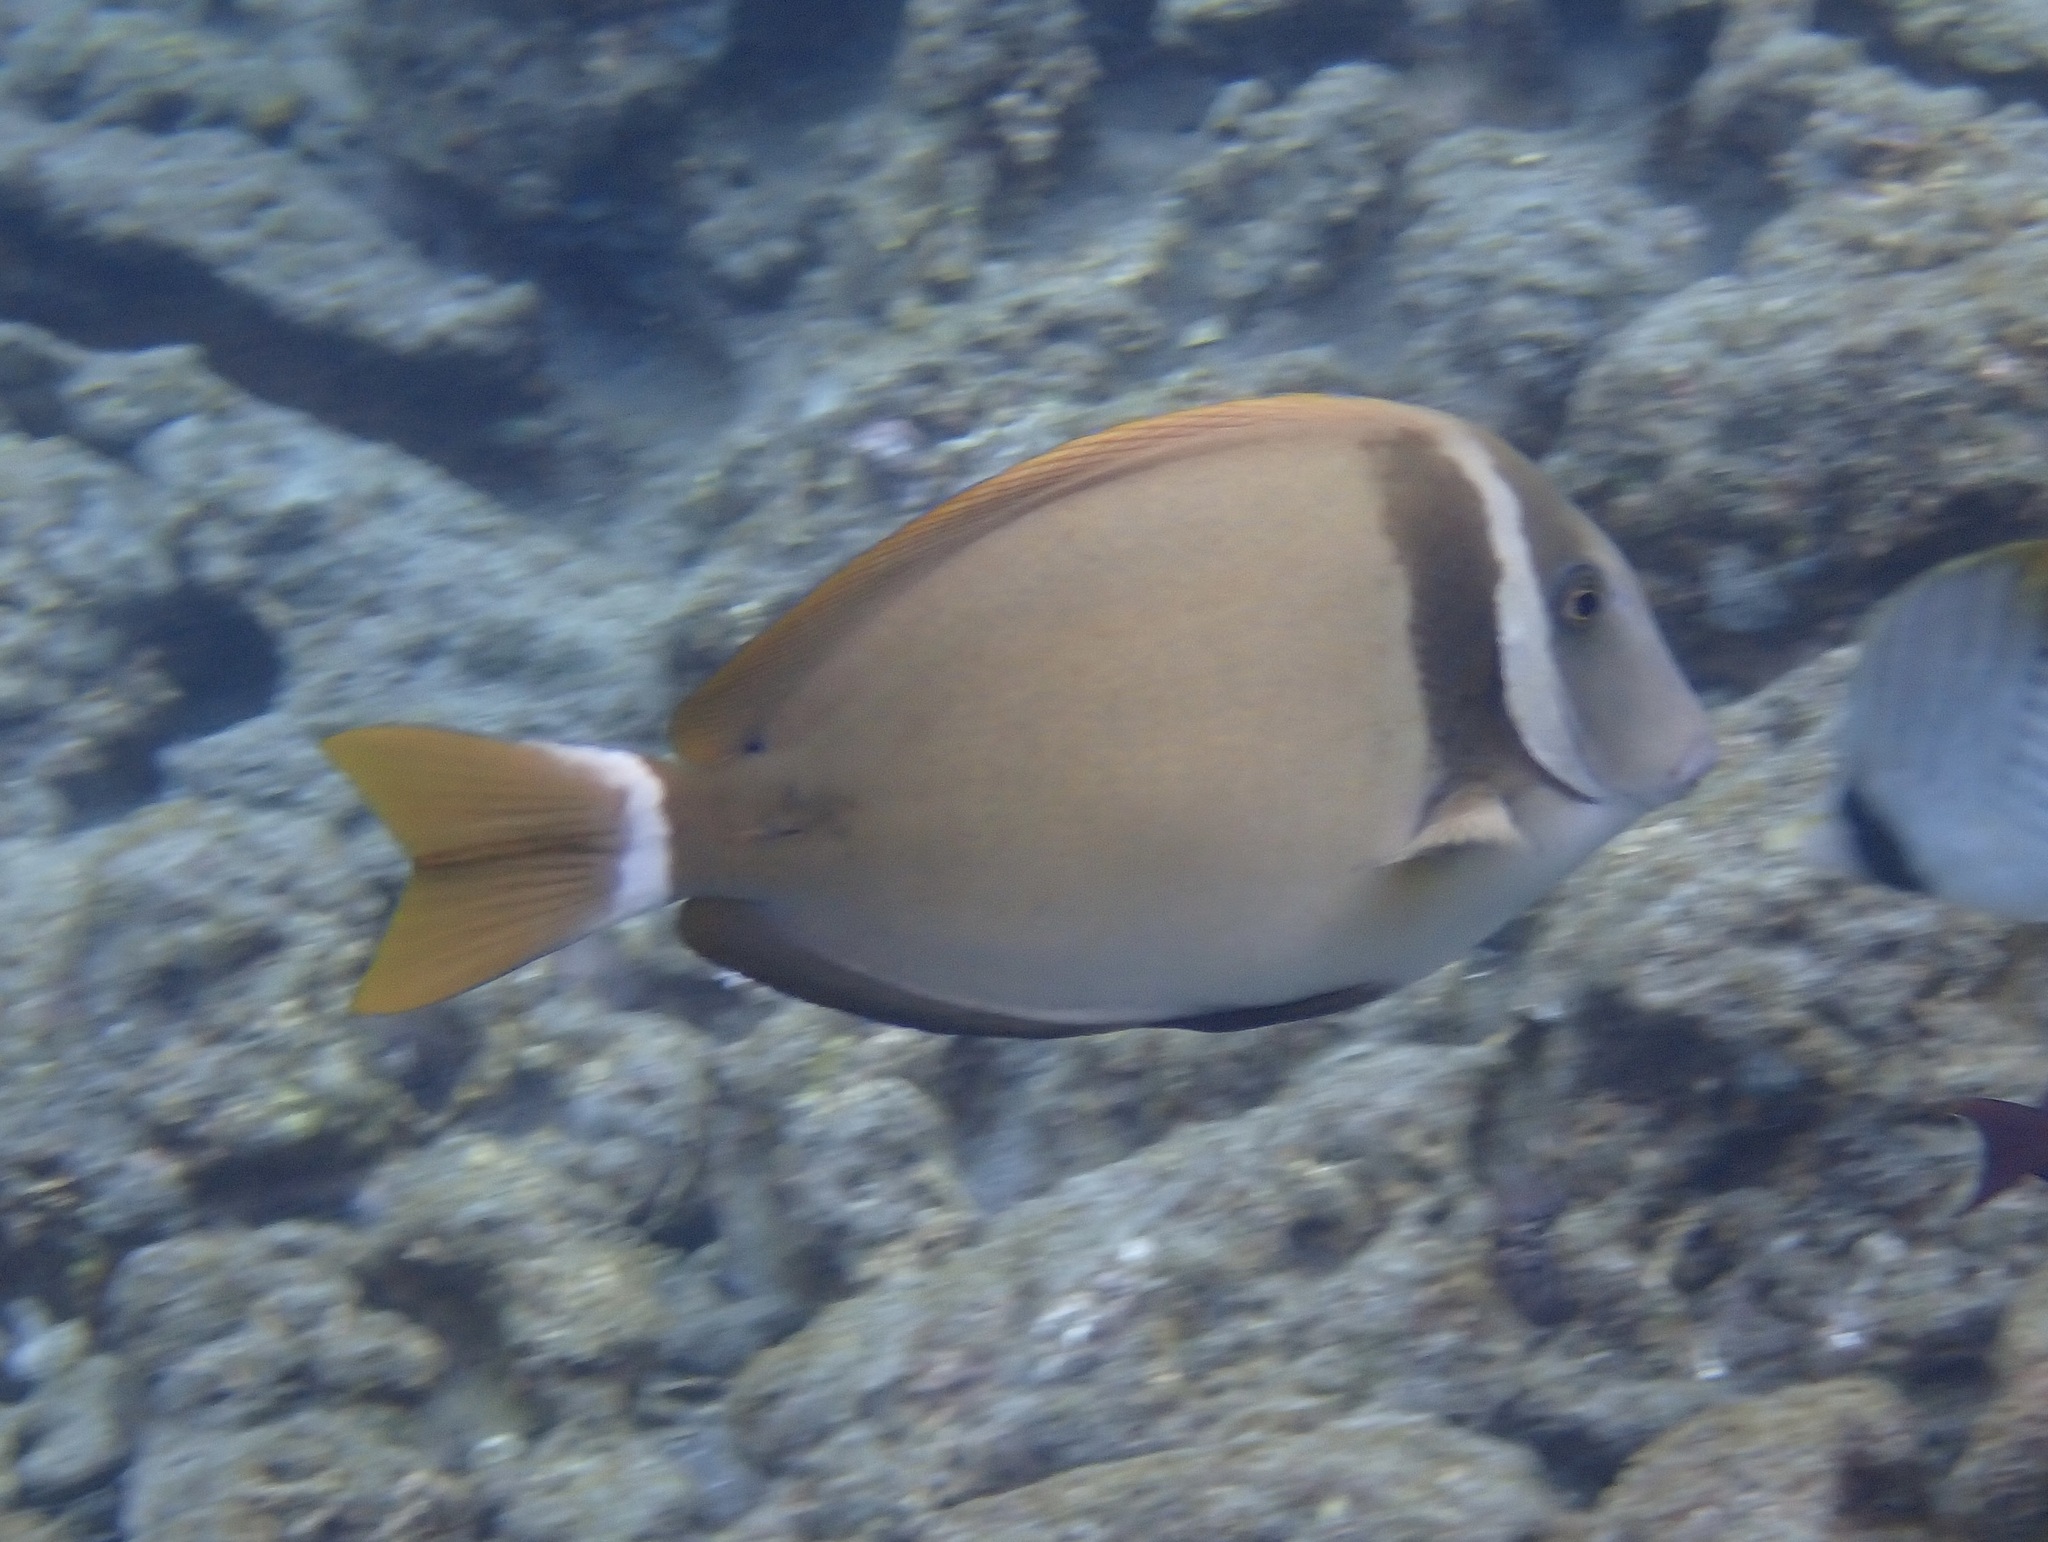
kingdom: Animalia
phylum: Chordata
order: Perciformes
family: Acanthuridae
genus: Acanthurus
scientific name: Acanthurus leucopareius
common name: Head-band surgeonfish
